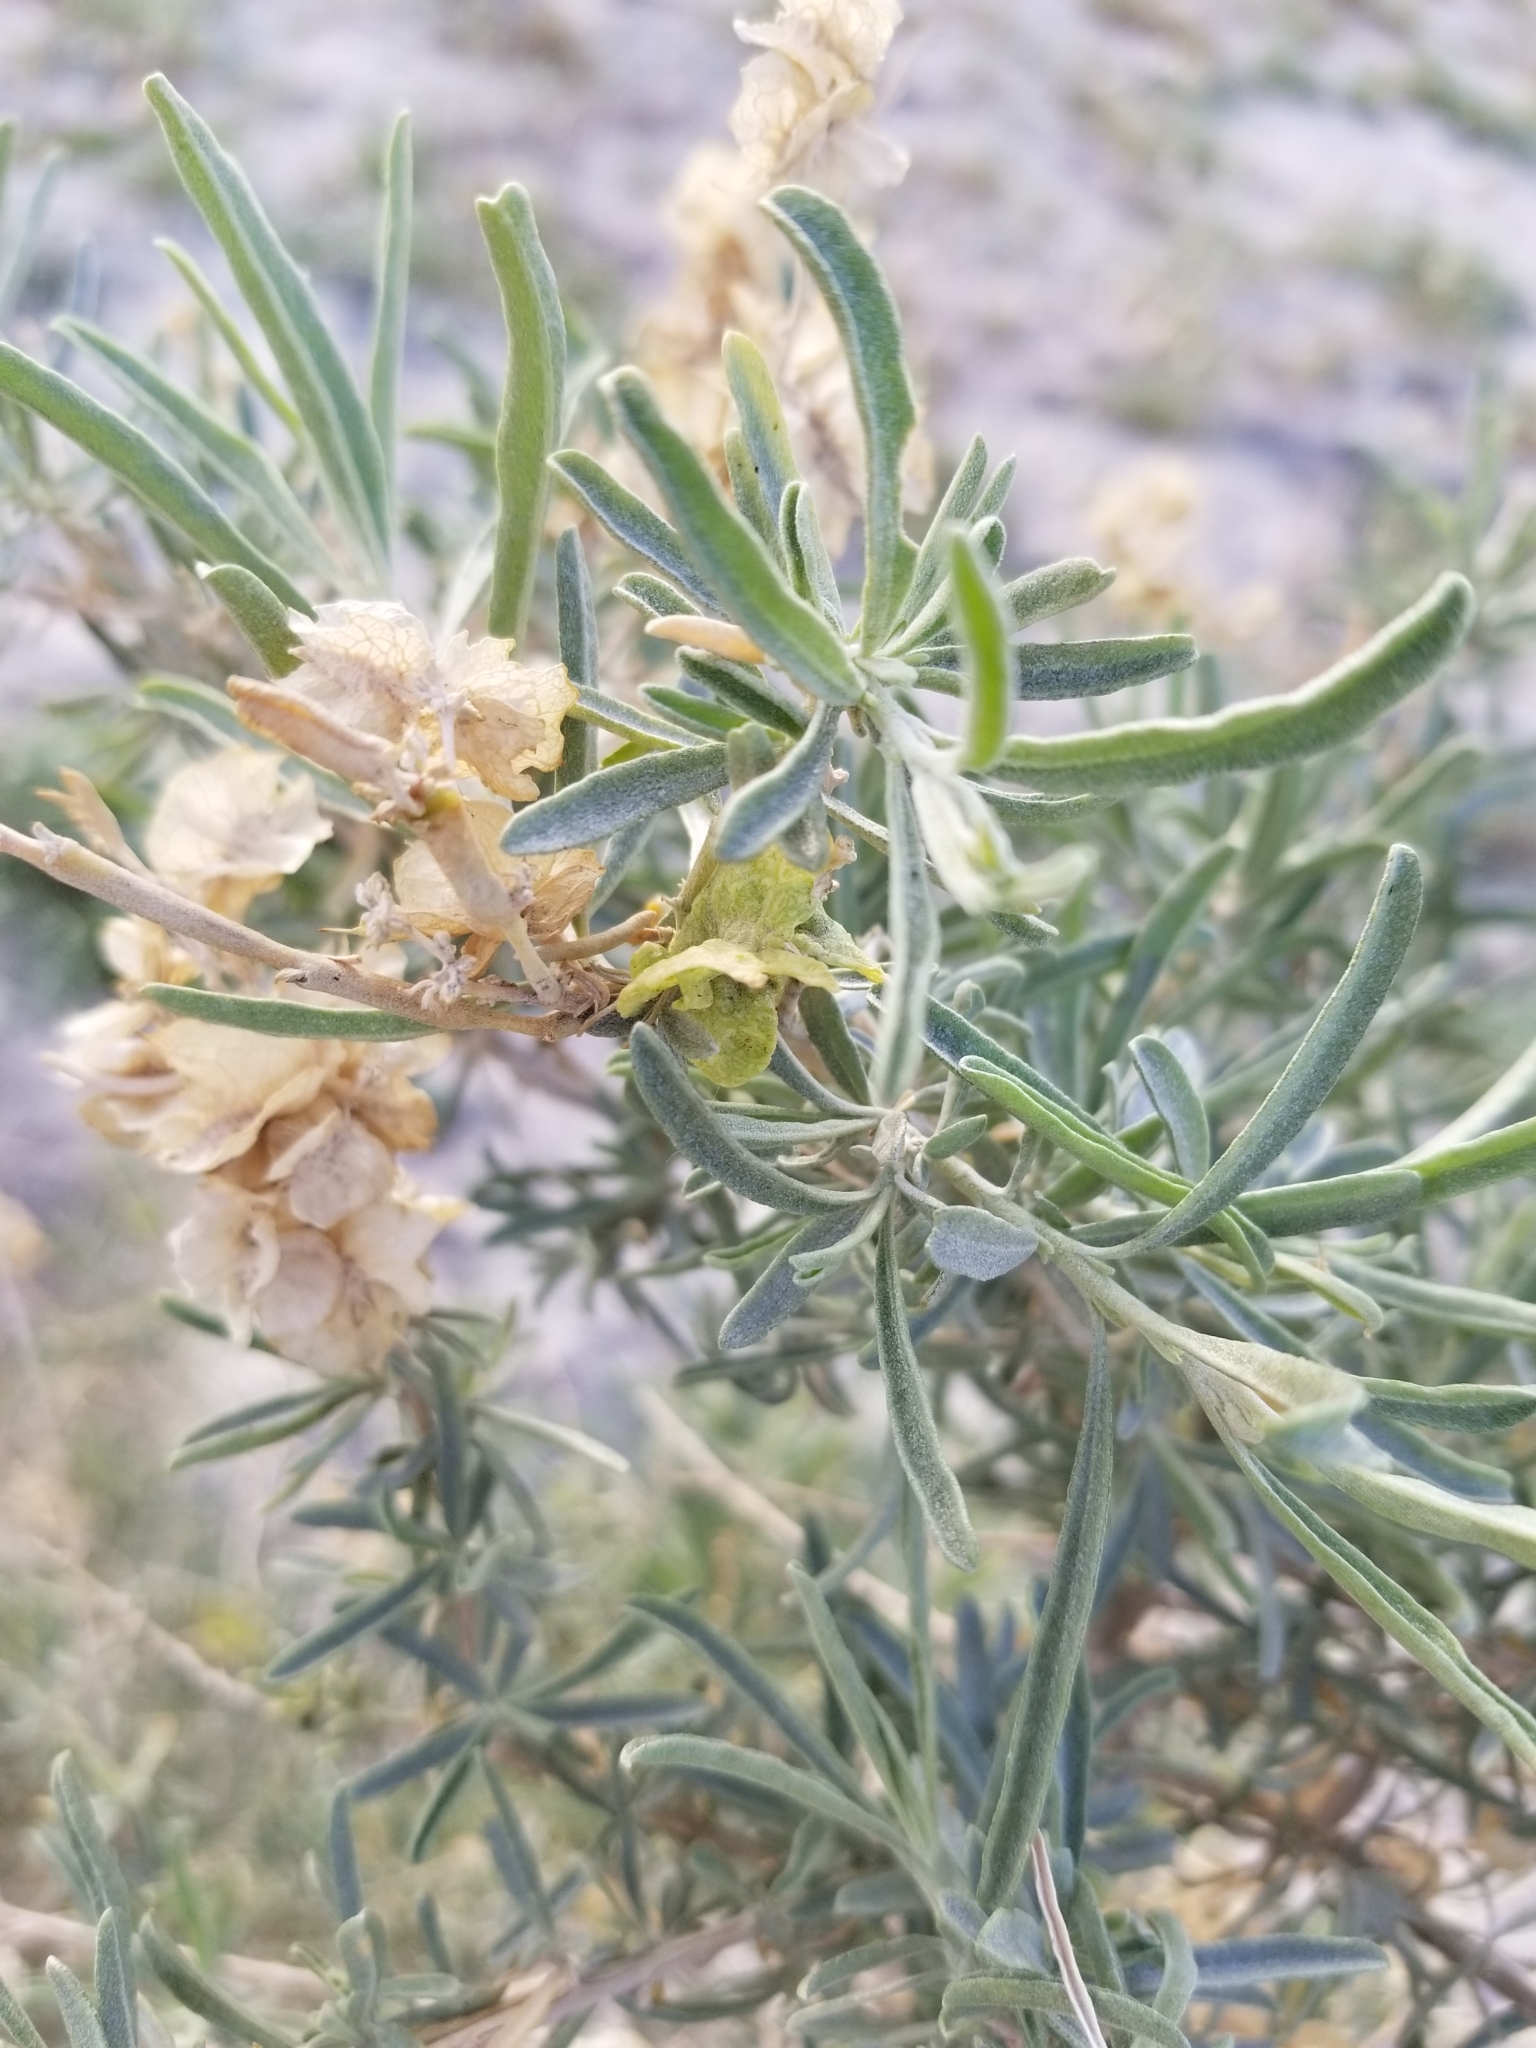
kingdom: Plantae
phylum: Tracheophyta
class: Magnoliopsida
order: Caryophyllales
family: Amaranthaceae
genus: Atriplex
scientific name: Atriplex canescens
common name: Four-wing saltbush
